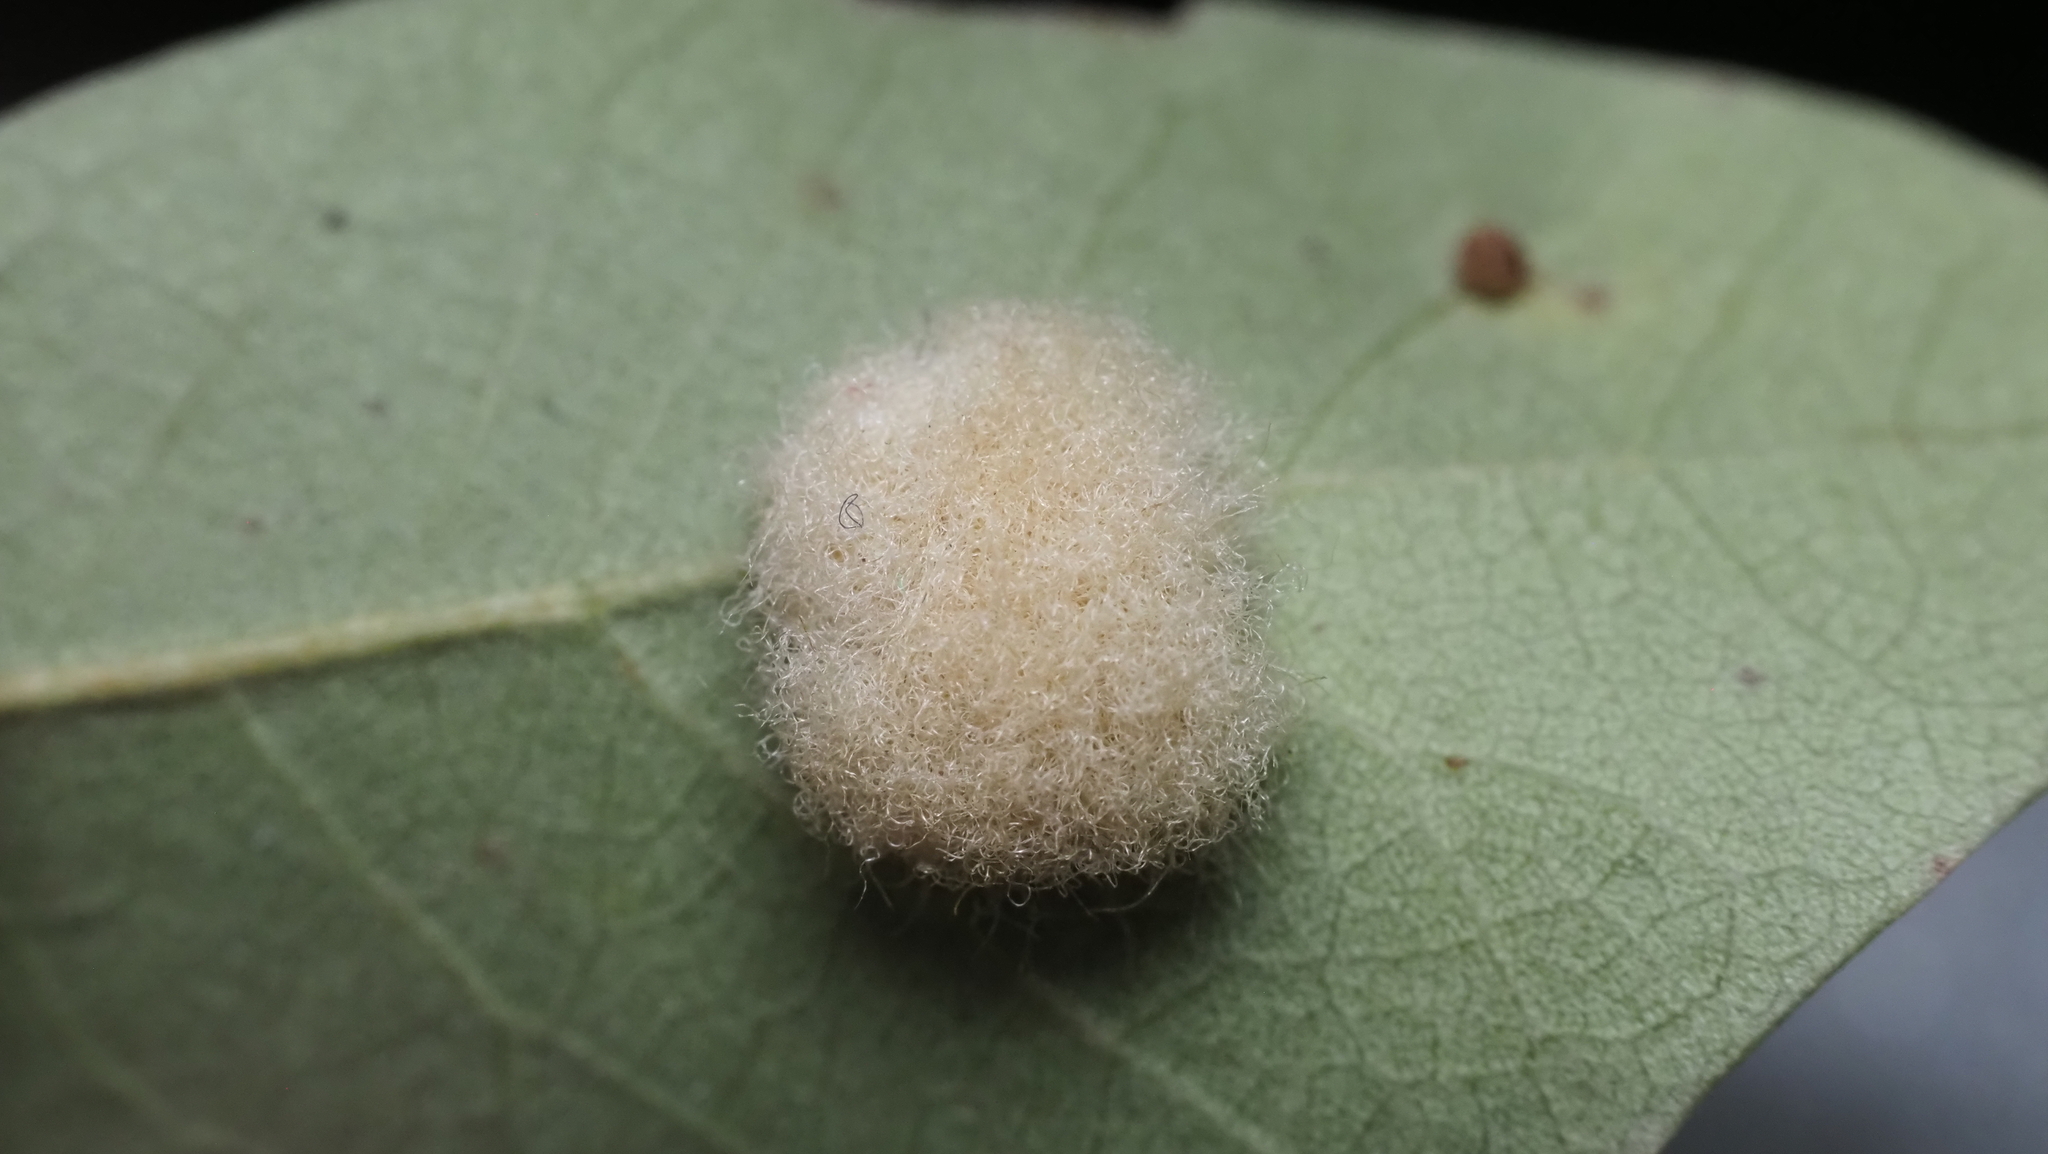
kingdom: Animalia
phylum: Arthropoda
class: Insecta
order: Hymenoptera
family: Cynipidae
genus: Andricus
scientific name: Andricus Druon quercuslanigerum
